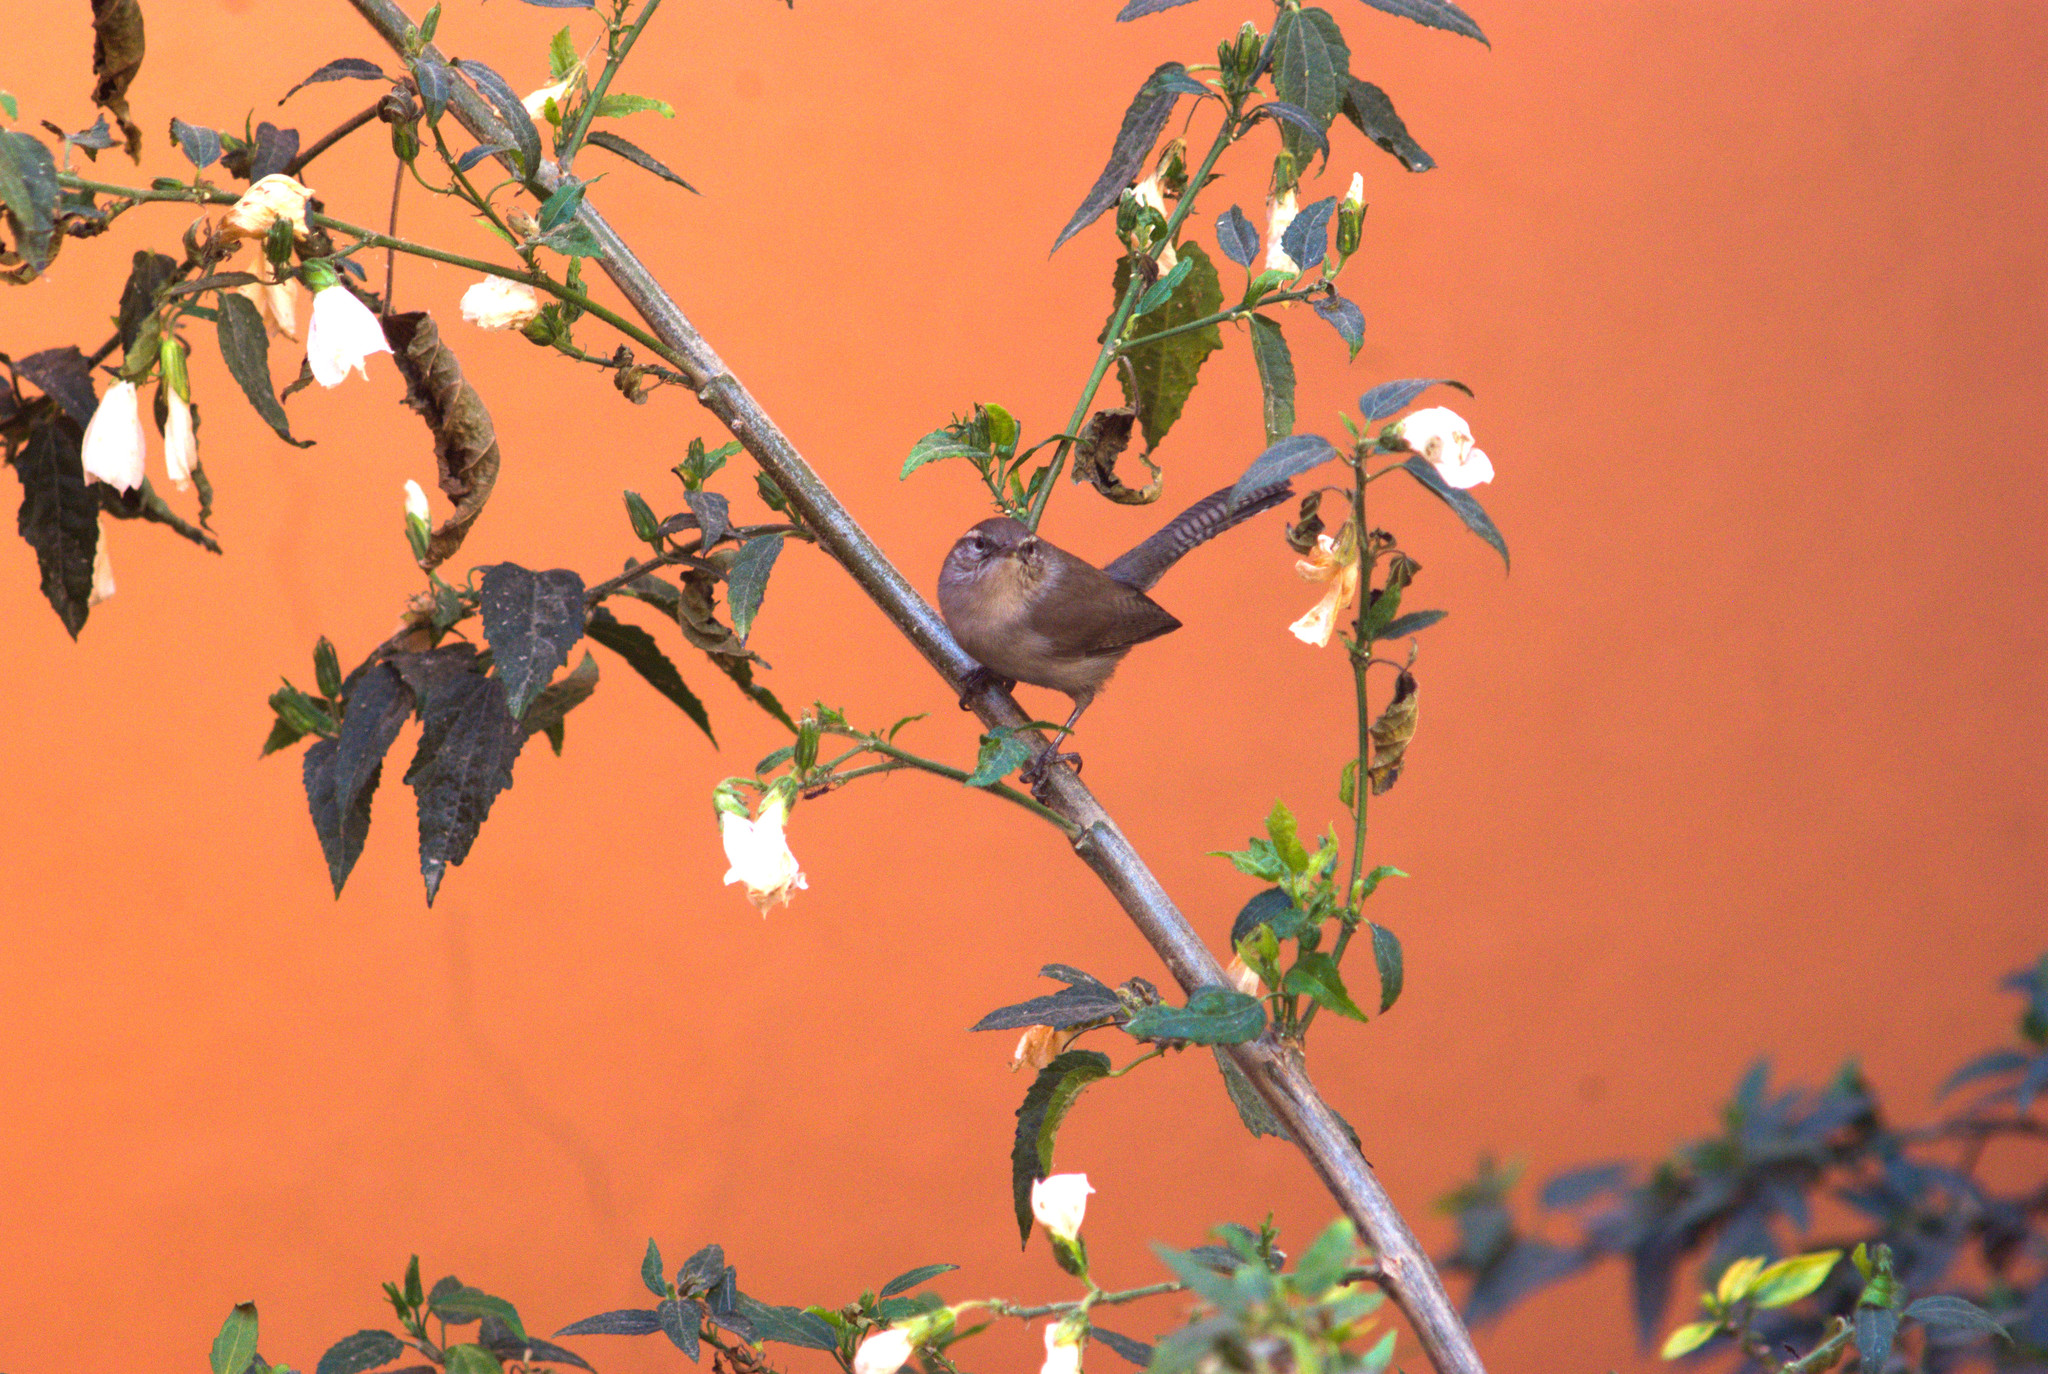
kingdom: Animalia
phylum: Chordata
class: Aves
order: Passeriformes
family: Troglodytidae
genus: Thryomanes
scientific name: Thryomanes bewickii
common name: Bewick's wren
